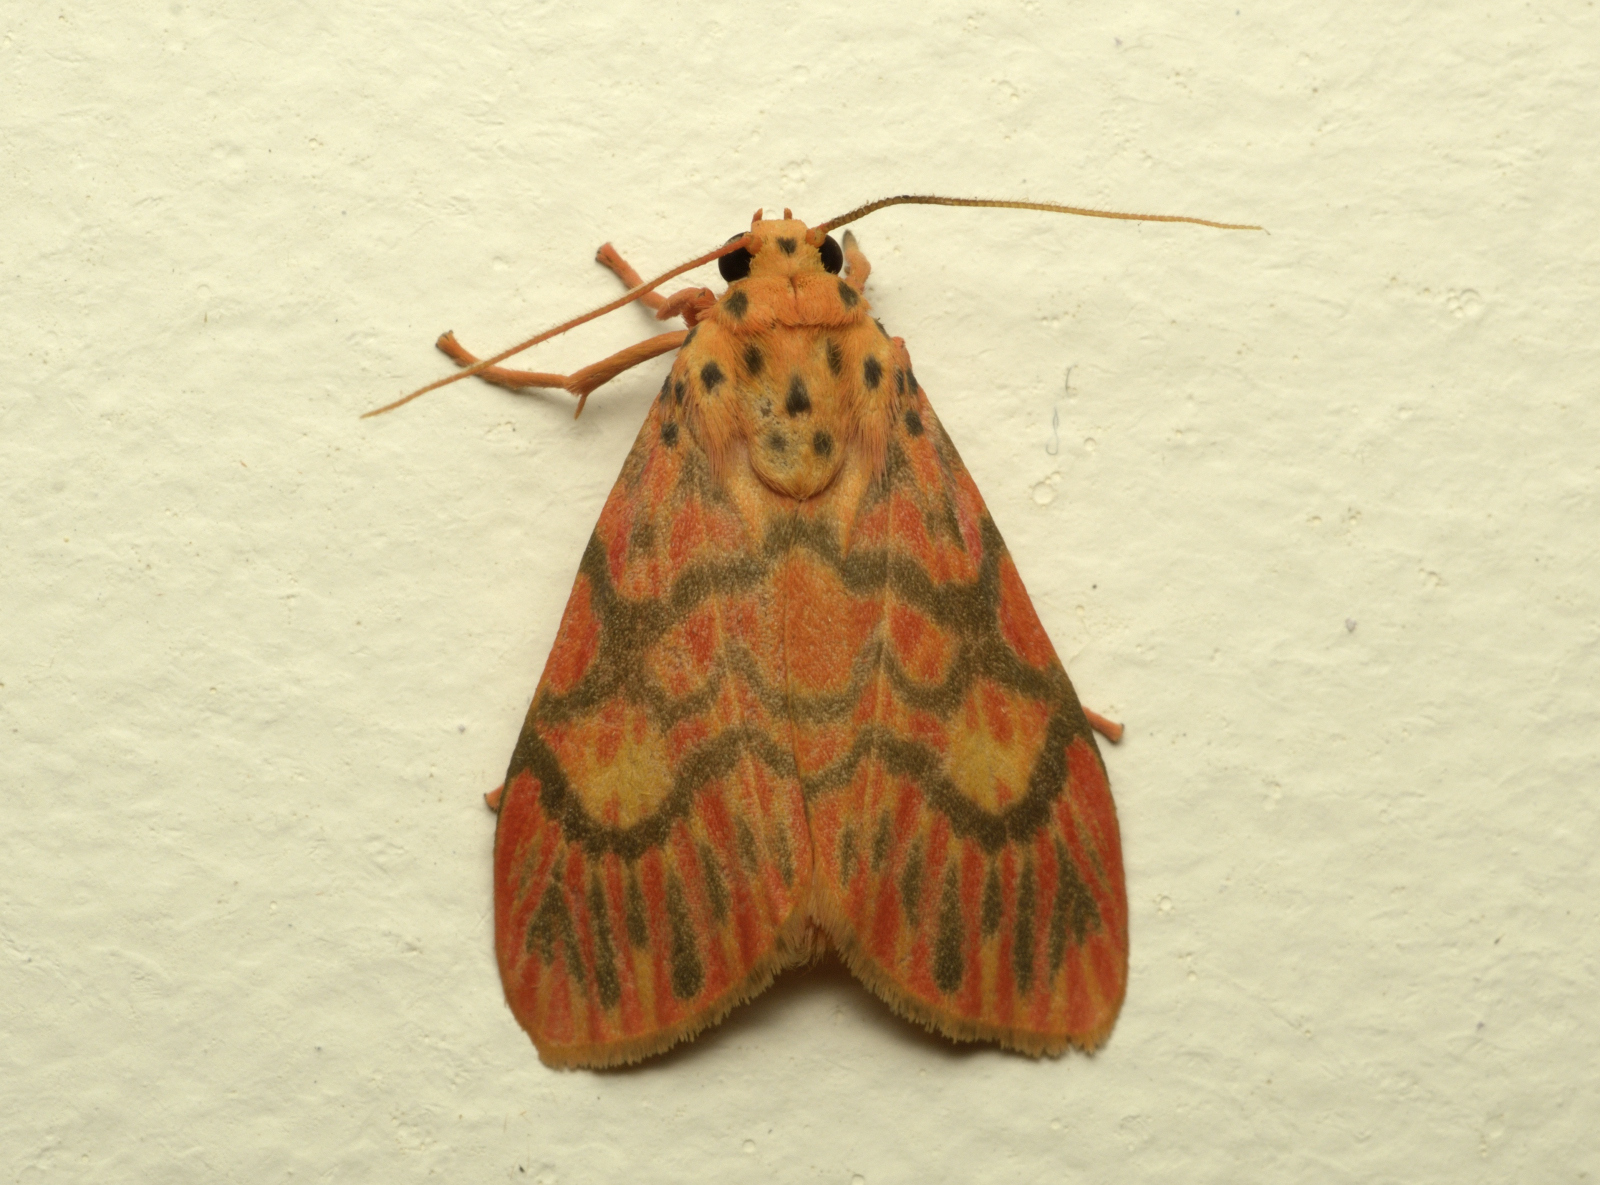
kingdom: Animalia
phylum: Arthropoda
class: Insecta
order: Lepidoptera
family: Erebidae
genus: Ammatho
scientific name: Ammatho cuneonotatus
